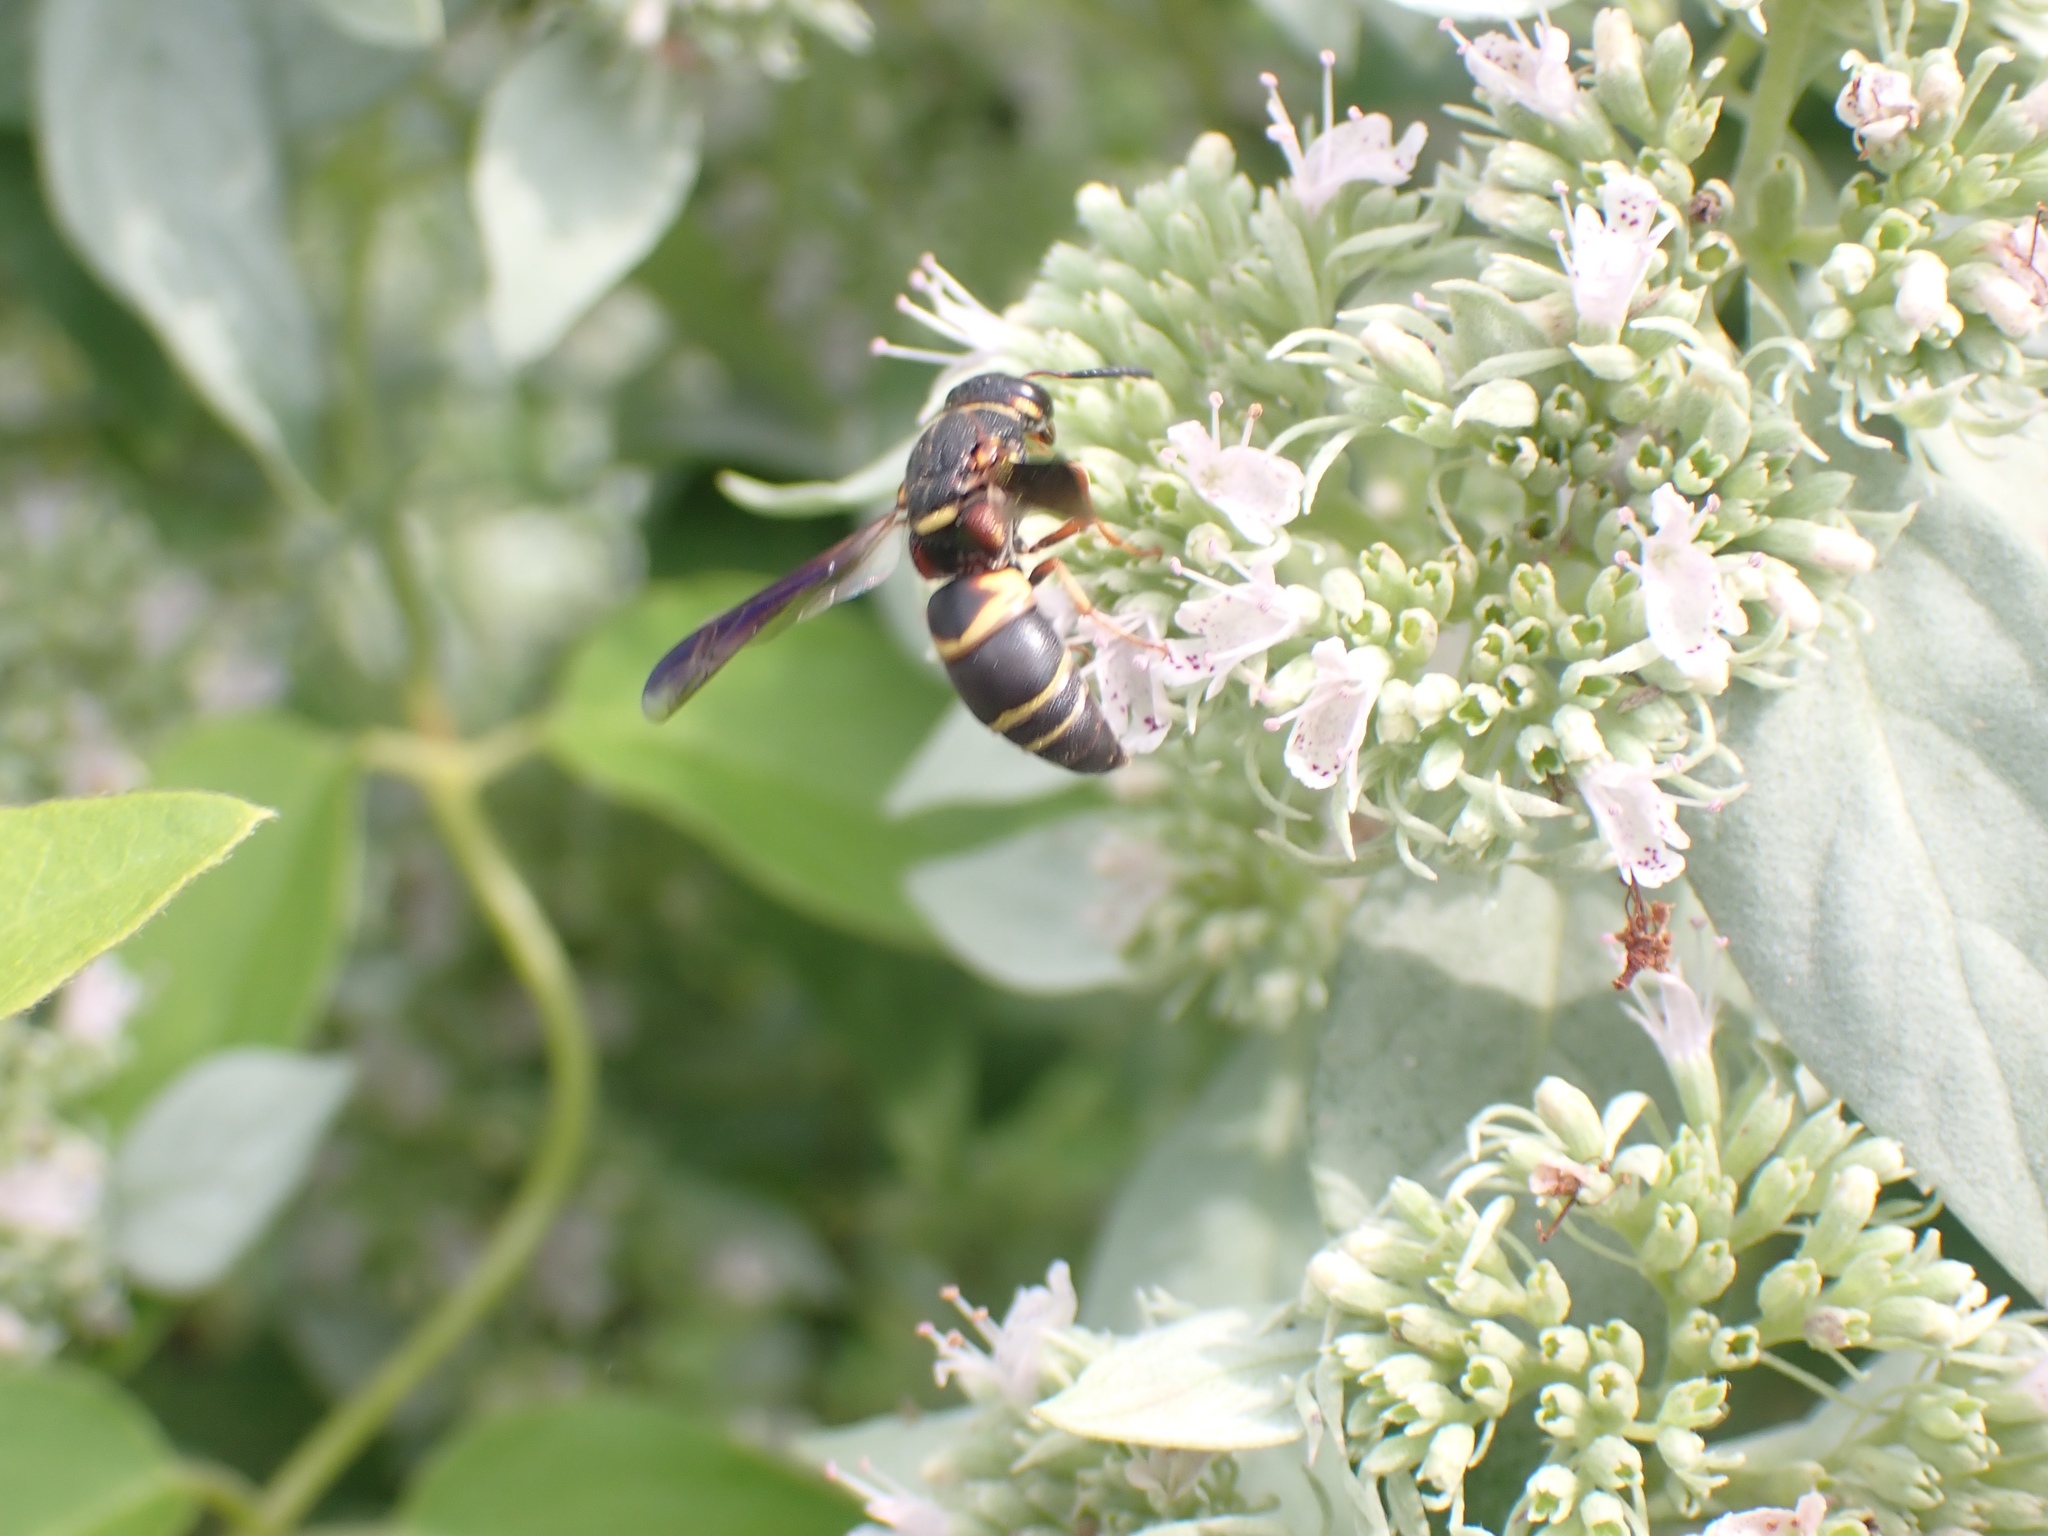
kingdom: Animalia
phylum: Arthropoda
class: Insecta
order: Hymenoptera
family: Eumenidae
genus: Euodynerus
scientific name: Euodynerus hidalgo
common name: Wasp
